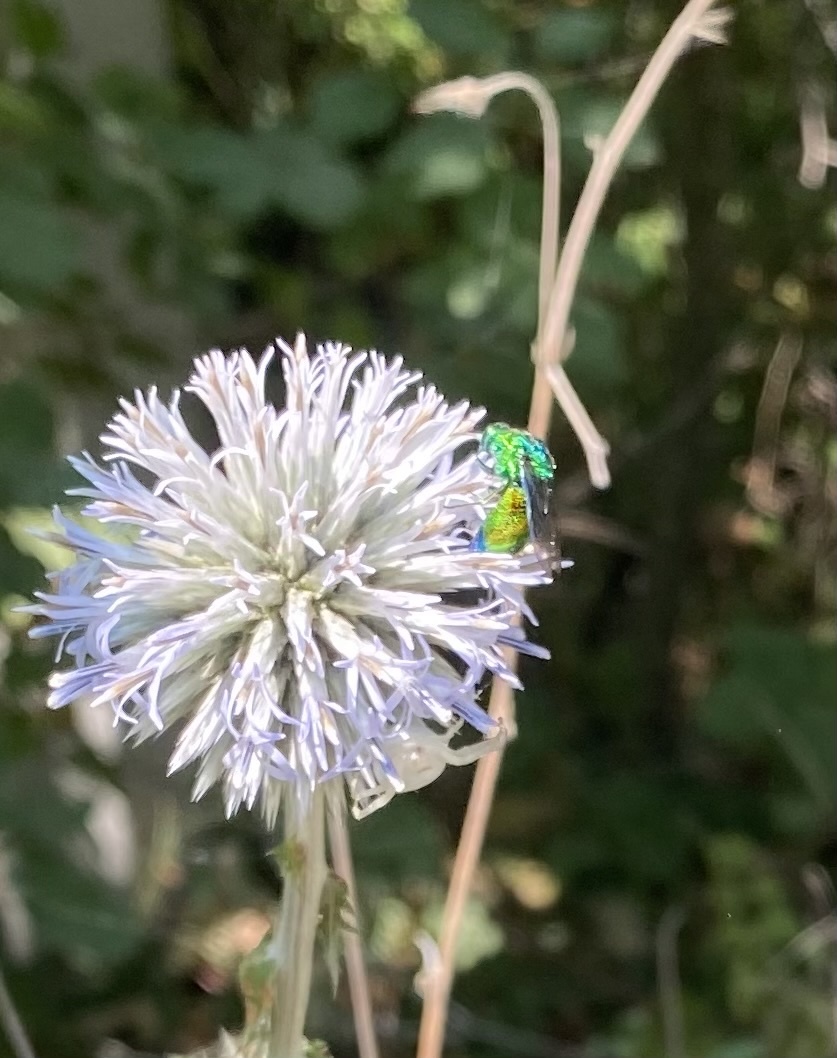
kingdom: Animalia
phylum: Arthropoda
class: Insecta
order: Hymenoptera
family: Chrysididae
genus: Stilbum
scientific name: Stilbum cyanurum
